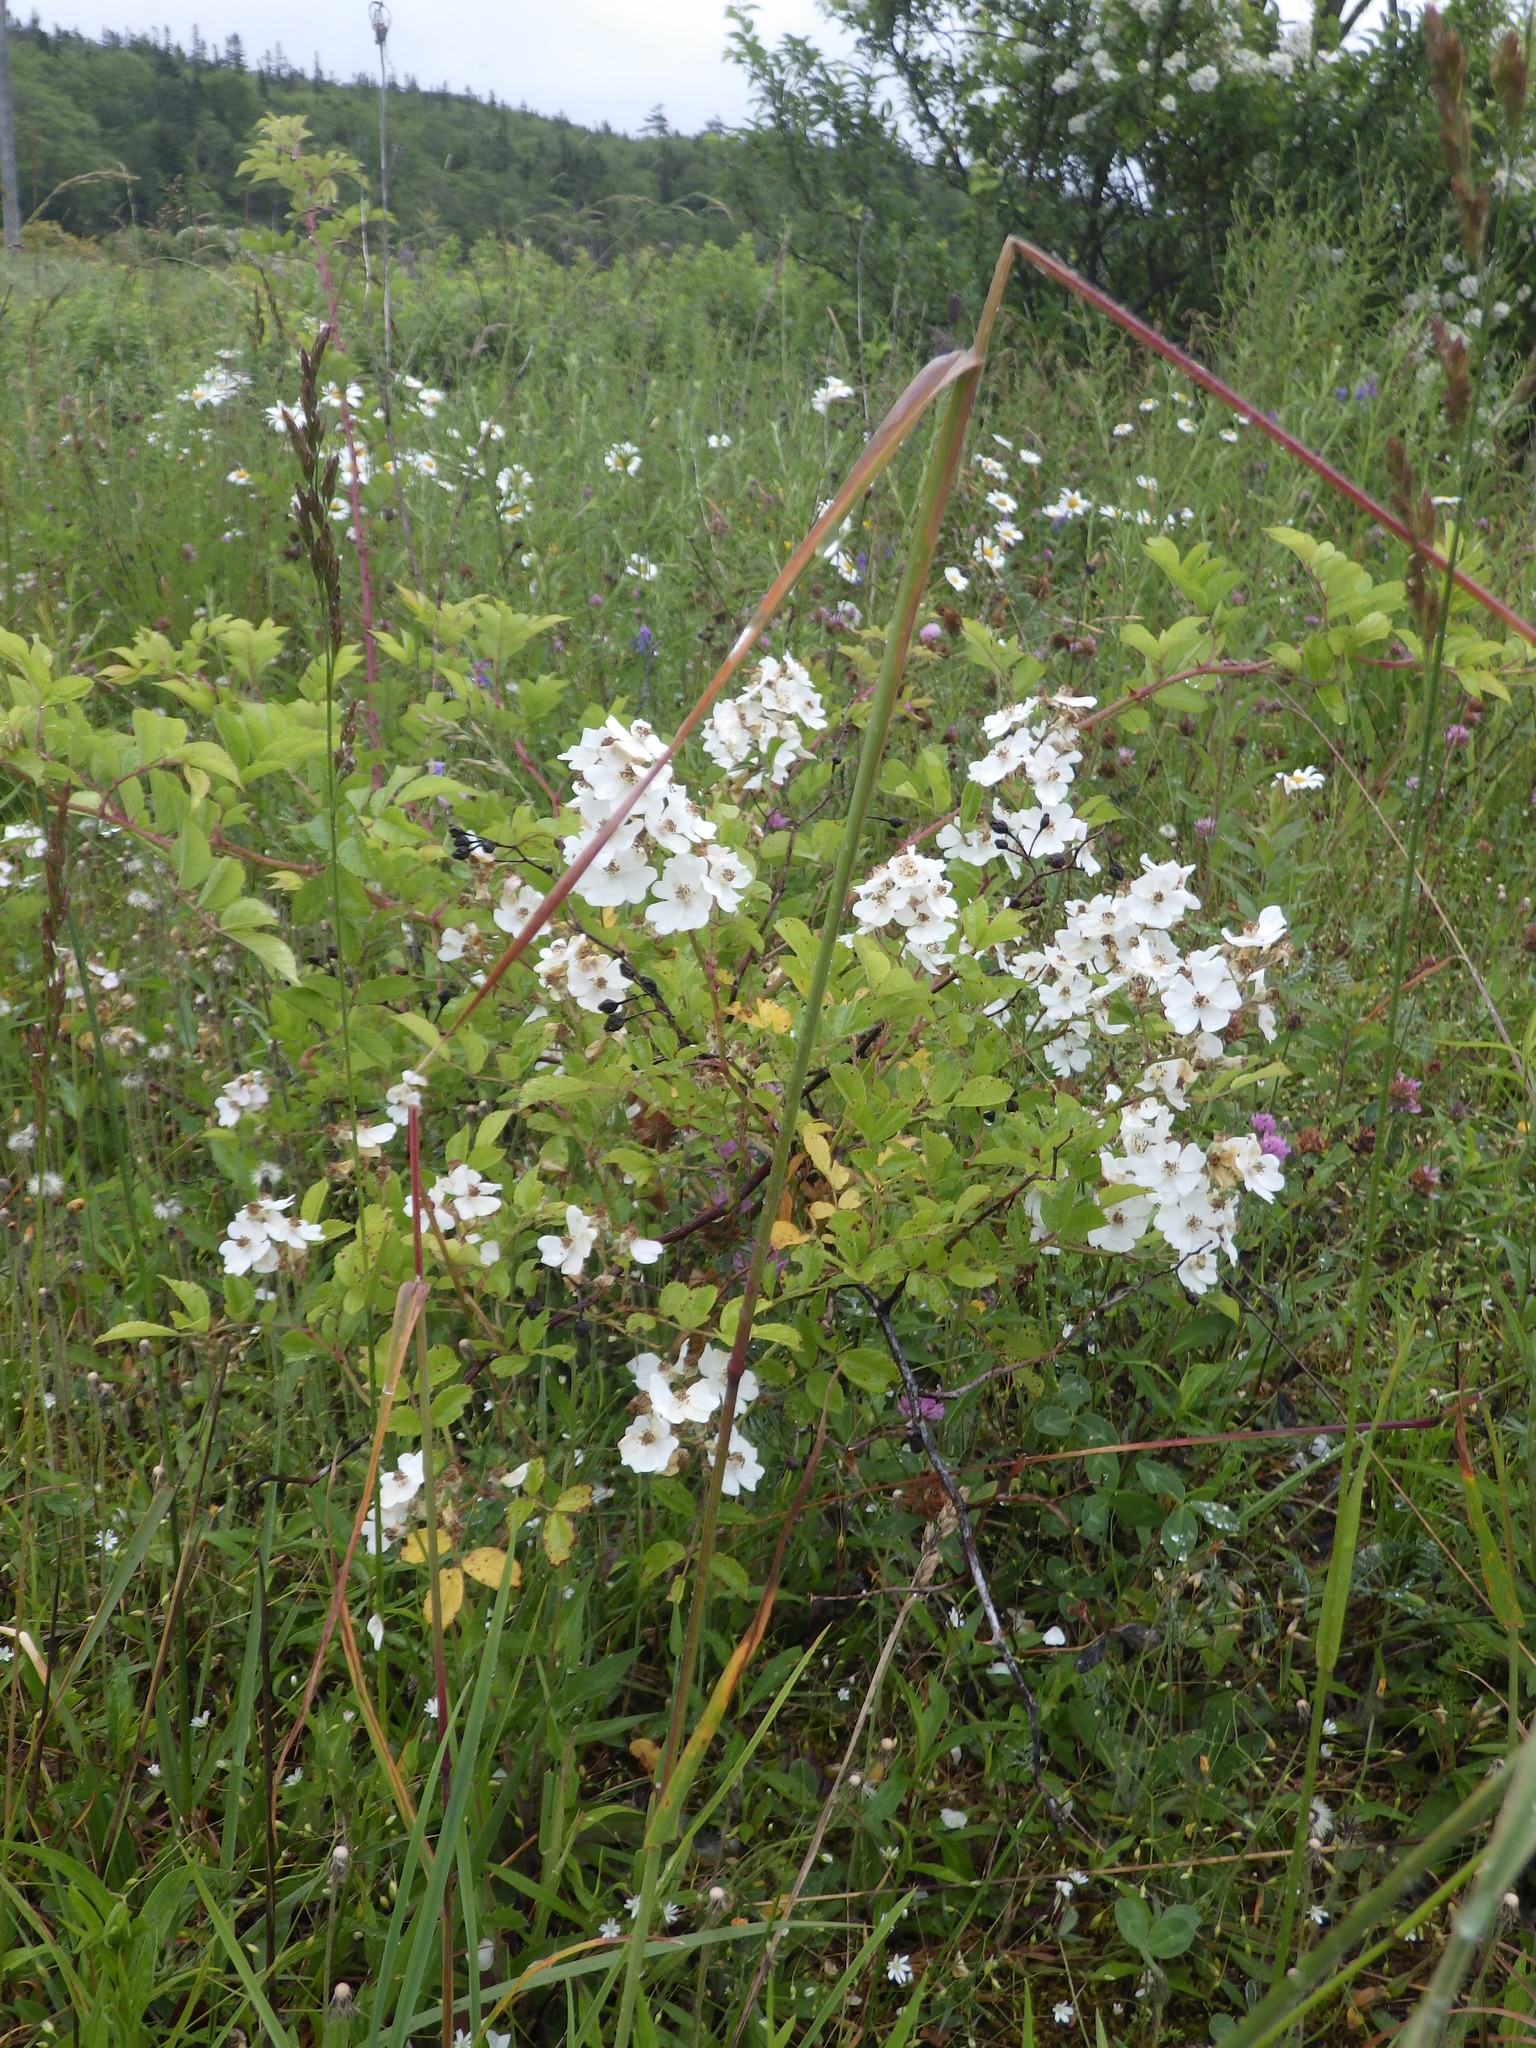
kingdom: Plantae
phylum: Tracheophyta
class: Magnoliopsida
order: Rosales
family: Rosaceae
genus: Rosa
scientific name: Rosa multiflora
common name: Multiflora rose
